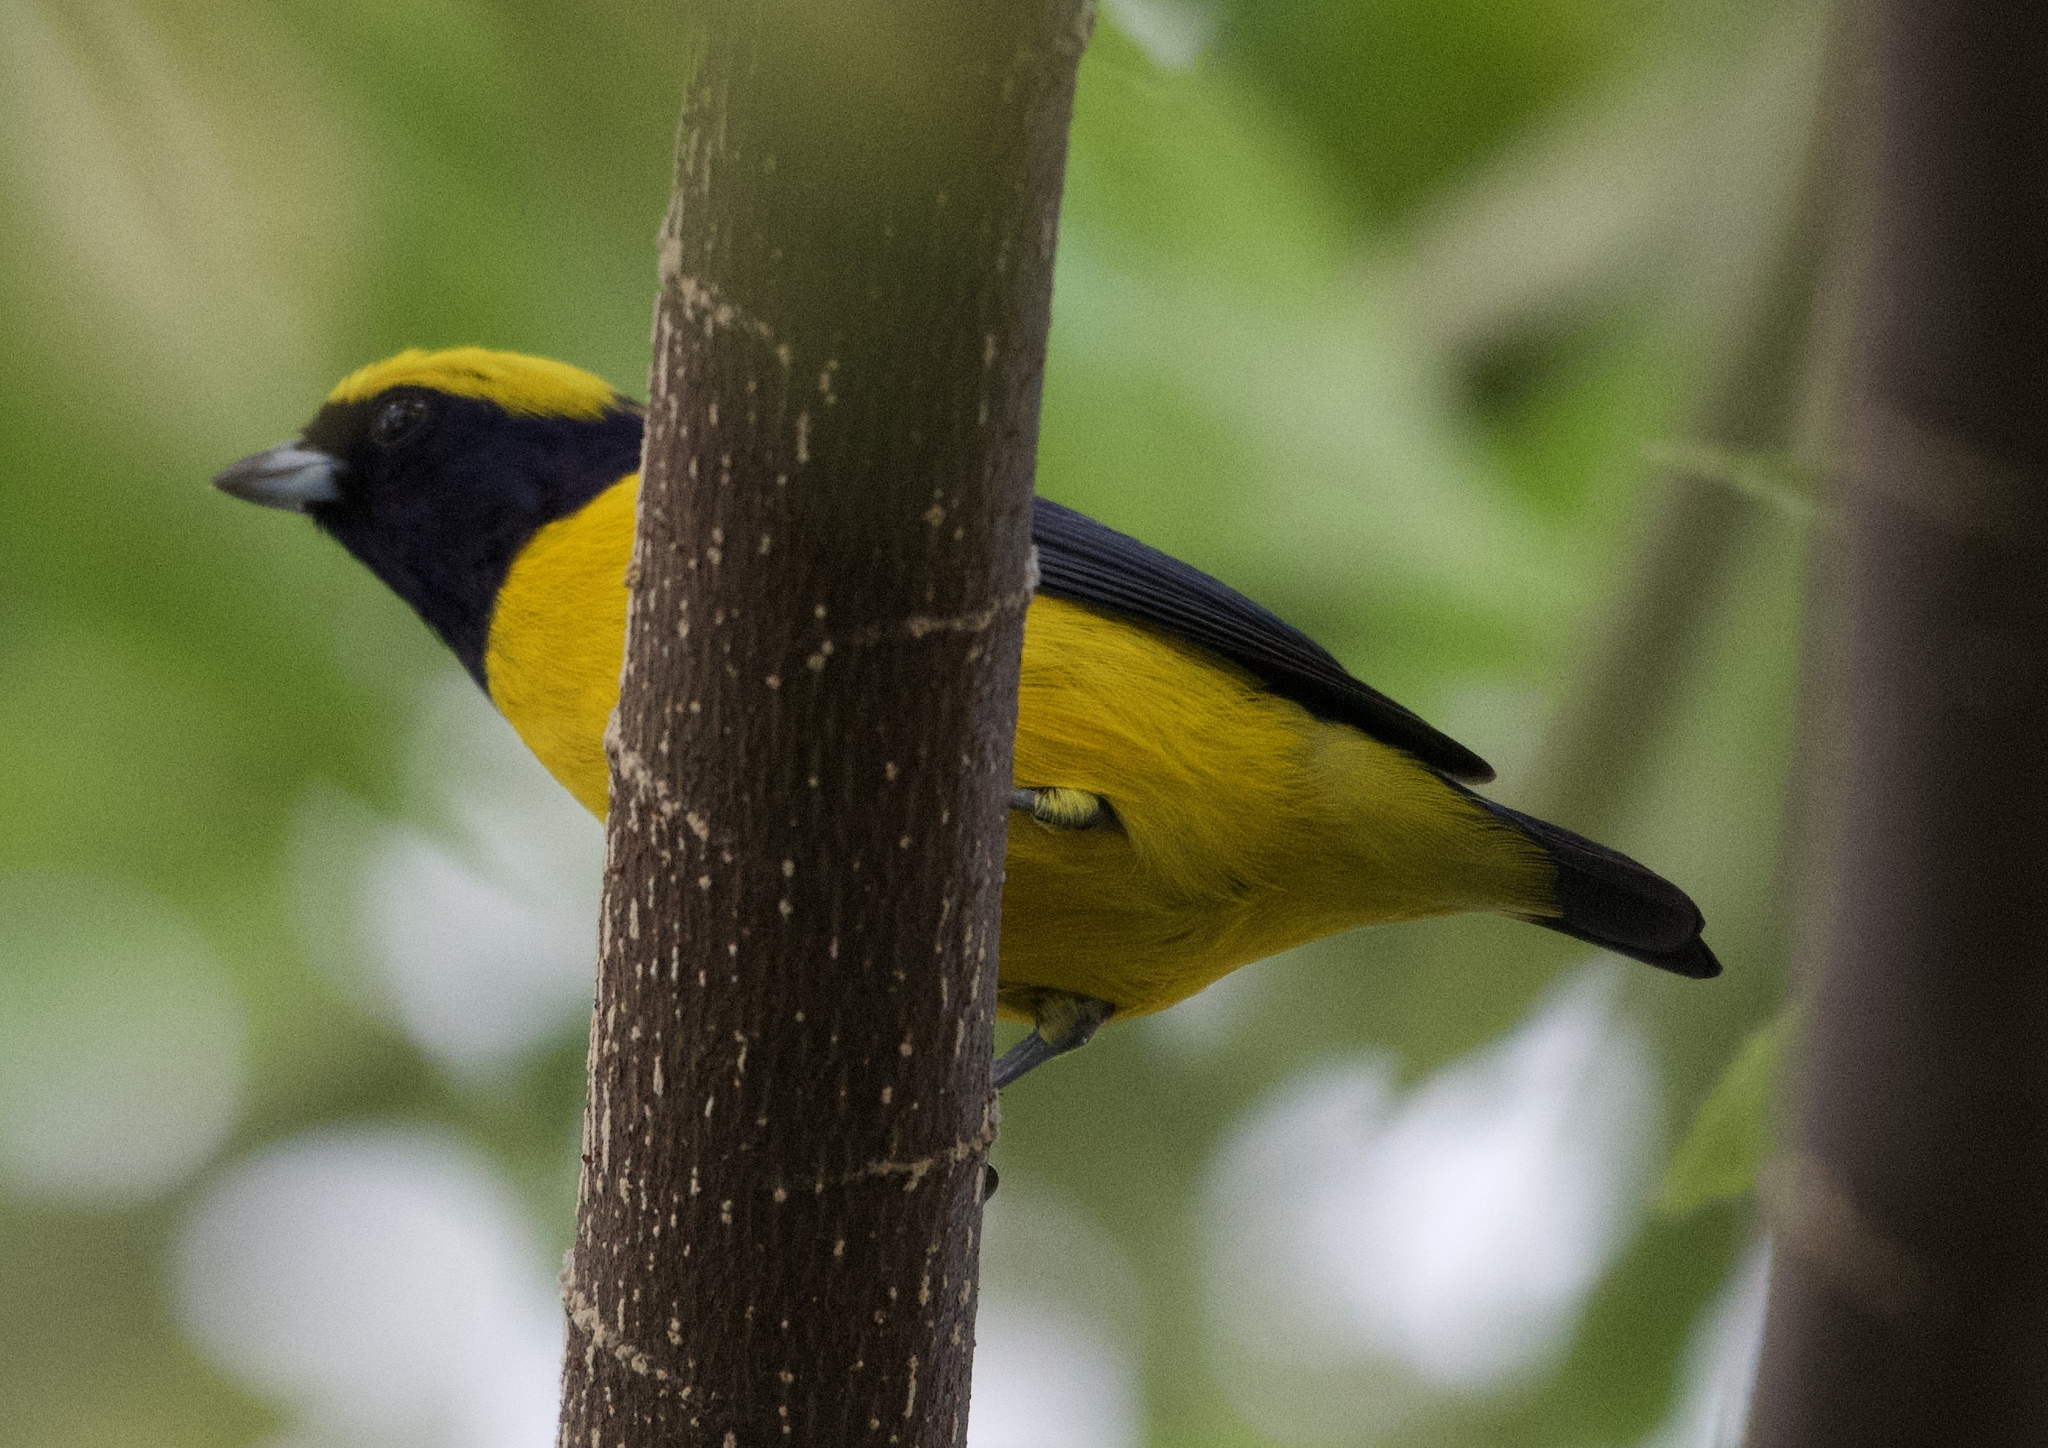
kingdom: Animalia
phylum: Chordata
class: Aves
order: Passeriformes
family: Fringillidae
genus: Euphonia
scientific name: Euphonia luteicapilla
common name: Yellow-crowned euphonia
